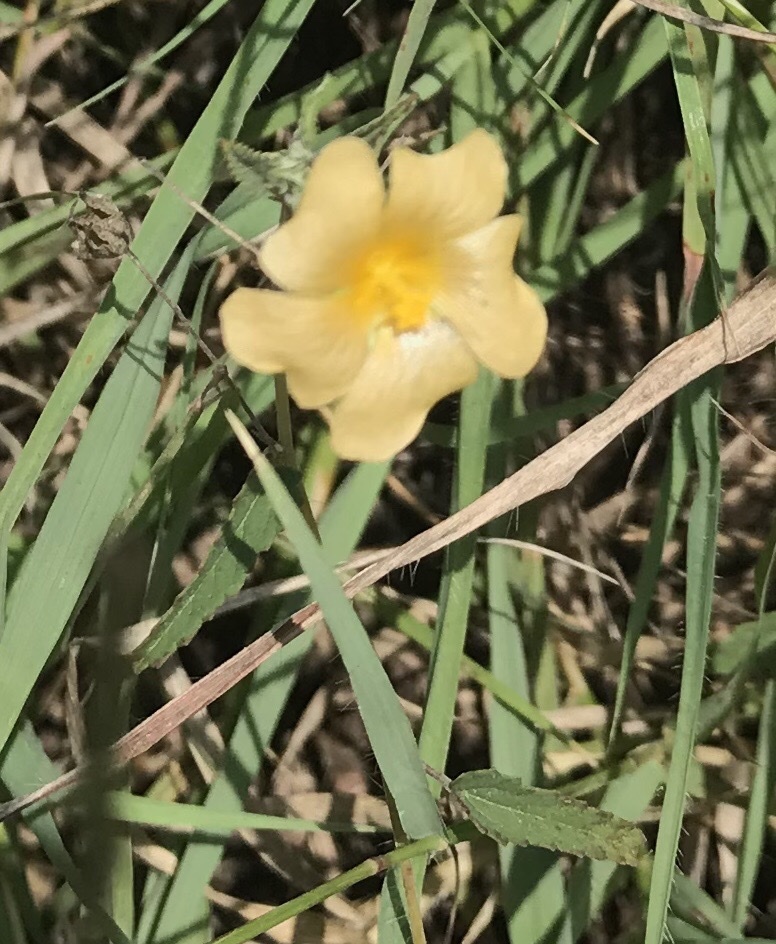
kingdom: Plantae
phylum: Tracheophyta
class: Magnoliopsida
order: Malvales
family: Malvaceae
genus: Sida
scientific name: Sida abutilifolia
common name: Spreading fanpetals
